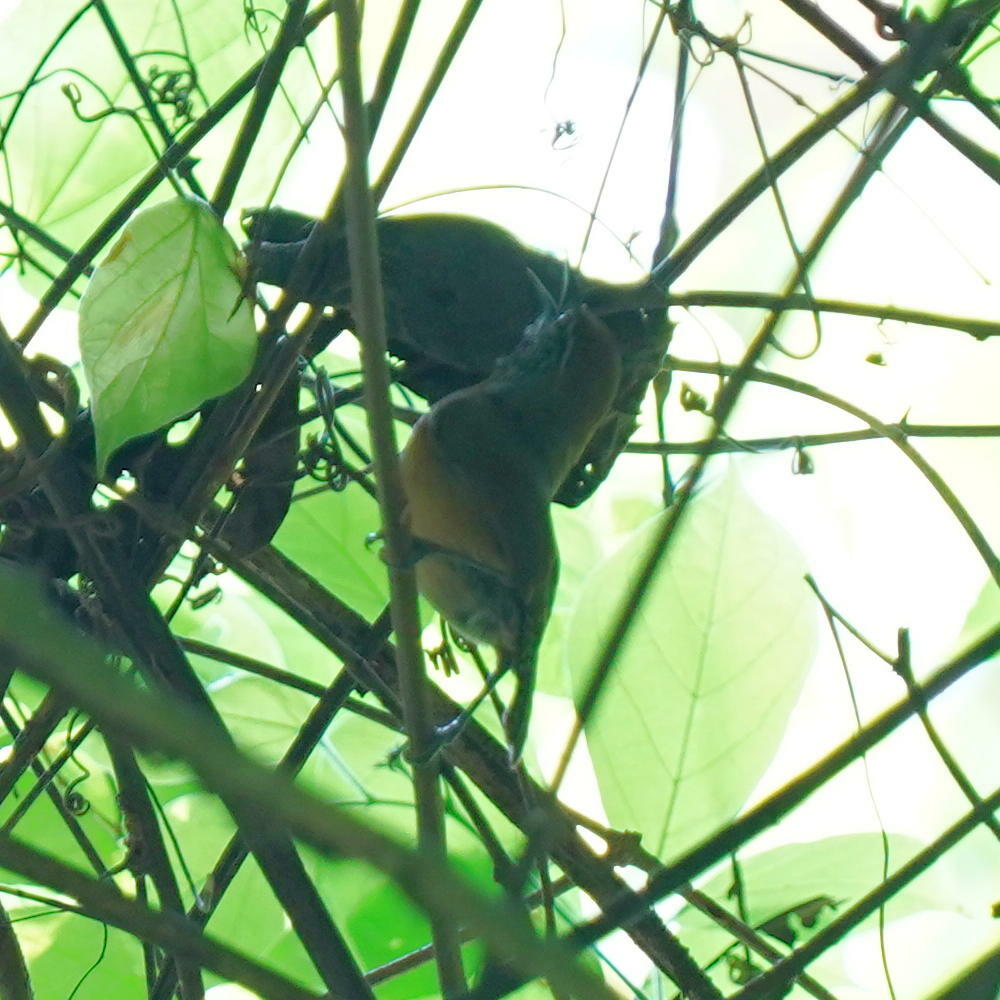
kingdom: Animalia
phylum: Chordata
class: Aves
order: Passeriformes
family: Troglodytidae
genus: Pheugopedius
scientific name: Pheugopedius rutilus
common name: Rufous-breasted wren
